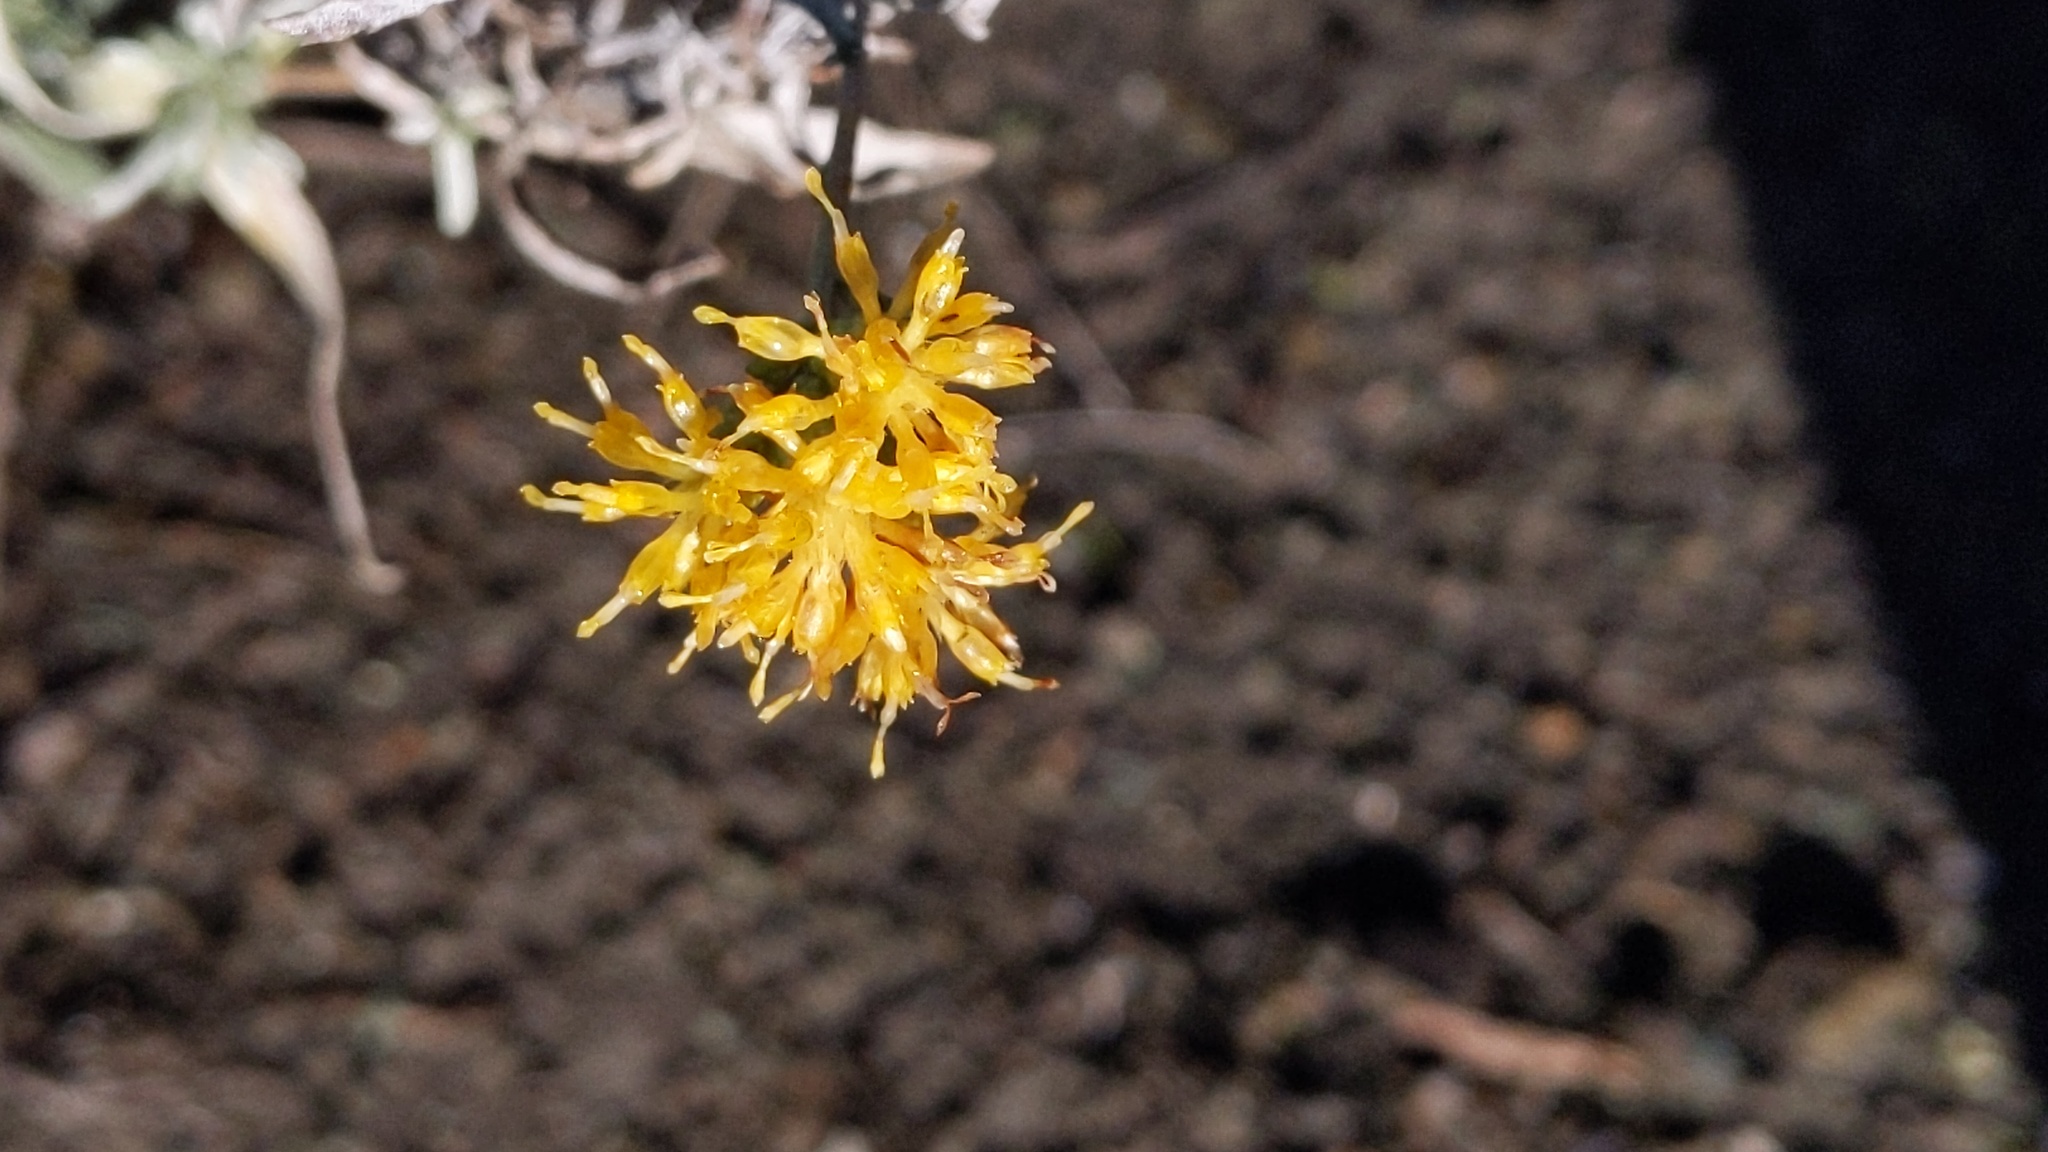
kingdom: Plantae
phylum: Tracheophyta
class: Magnoliopsida
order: Asterales
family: Asteraceae
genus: Isocoma
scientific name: Isocoma menziesii
